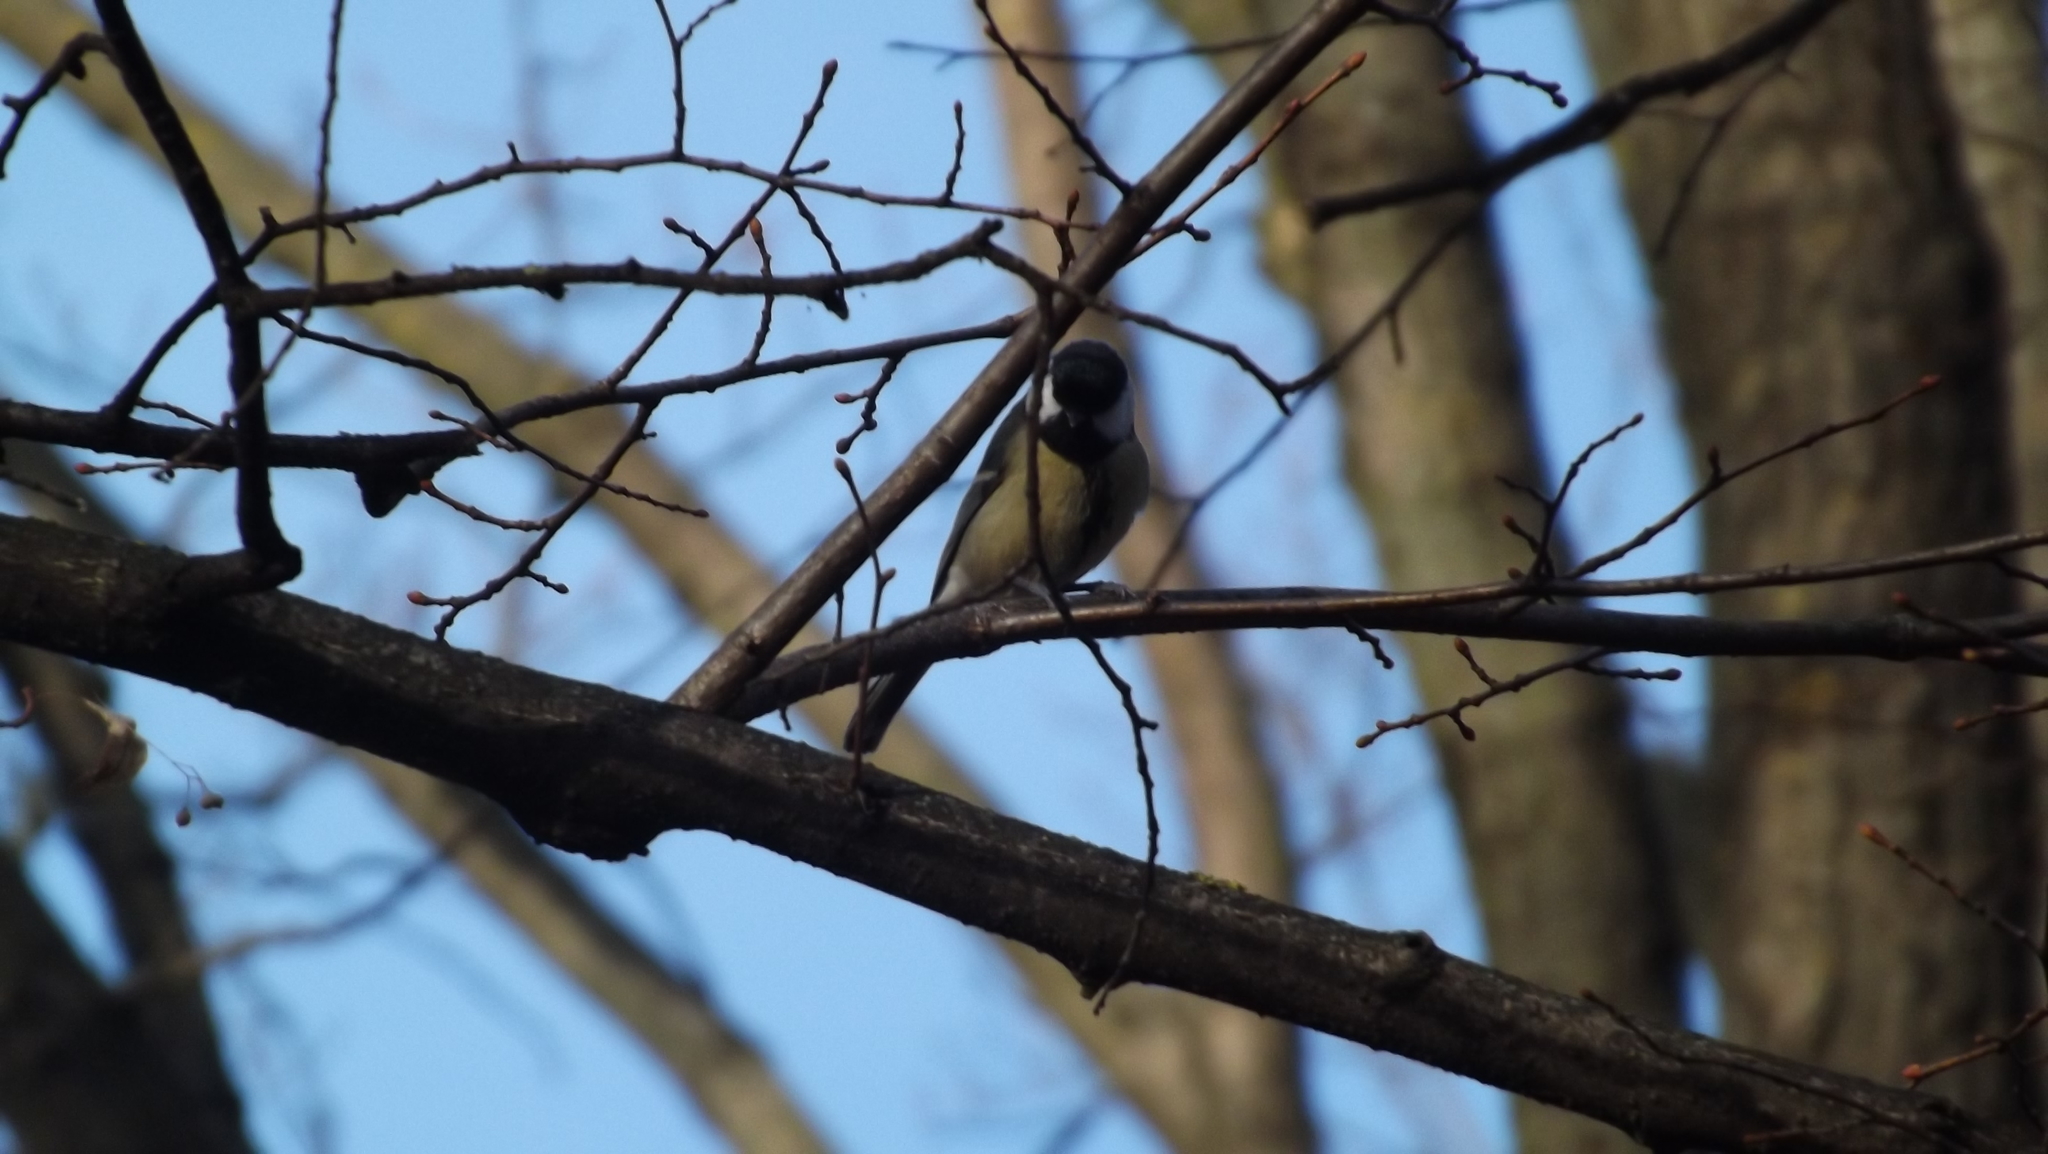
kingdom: Animalia
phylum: Chordata
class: Aves
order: Passeriformes
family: Paridae
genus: Parus
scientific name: Parus major
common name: Great tit
